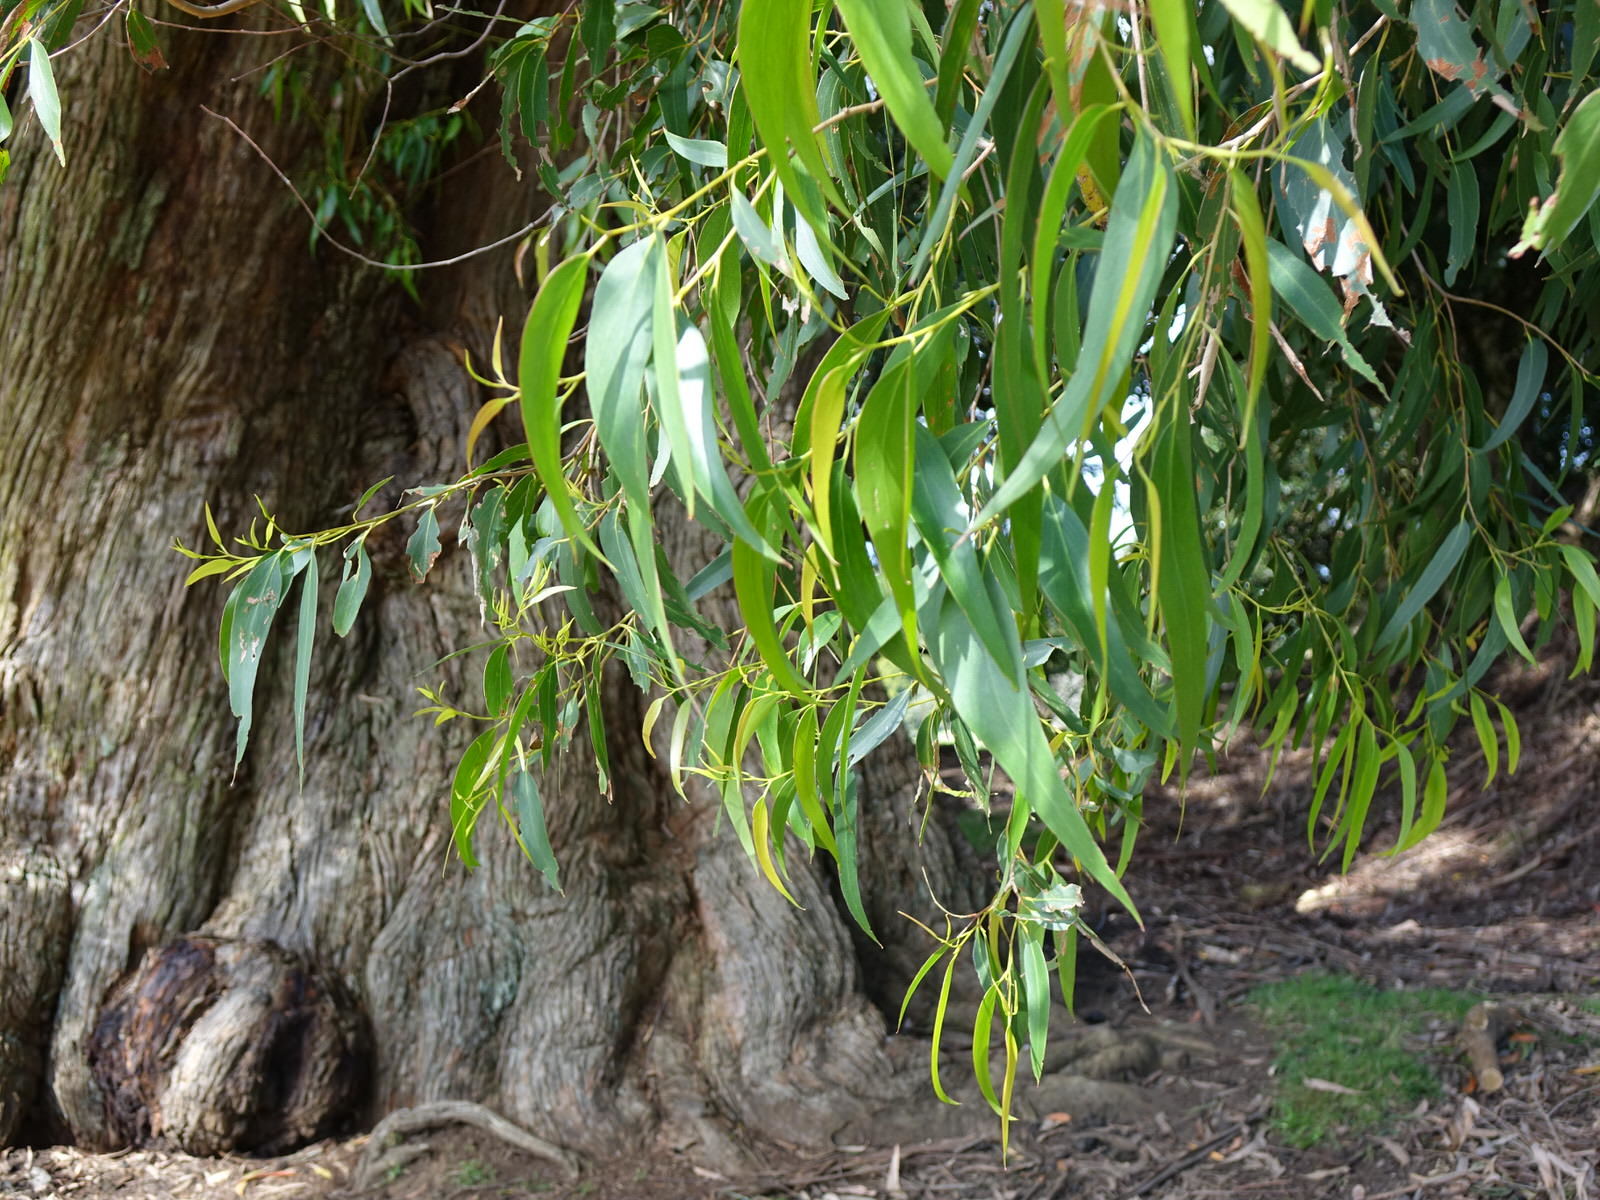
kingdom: Animalia
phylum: Arthropoda
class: Insecta
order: Lepidoptera
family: Nolidae
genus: Uraba
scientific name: Uraba lugens
